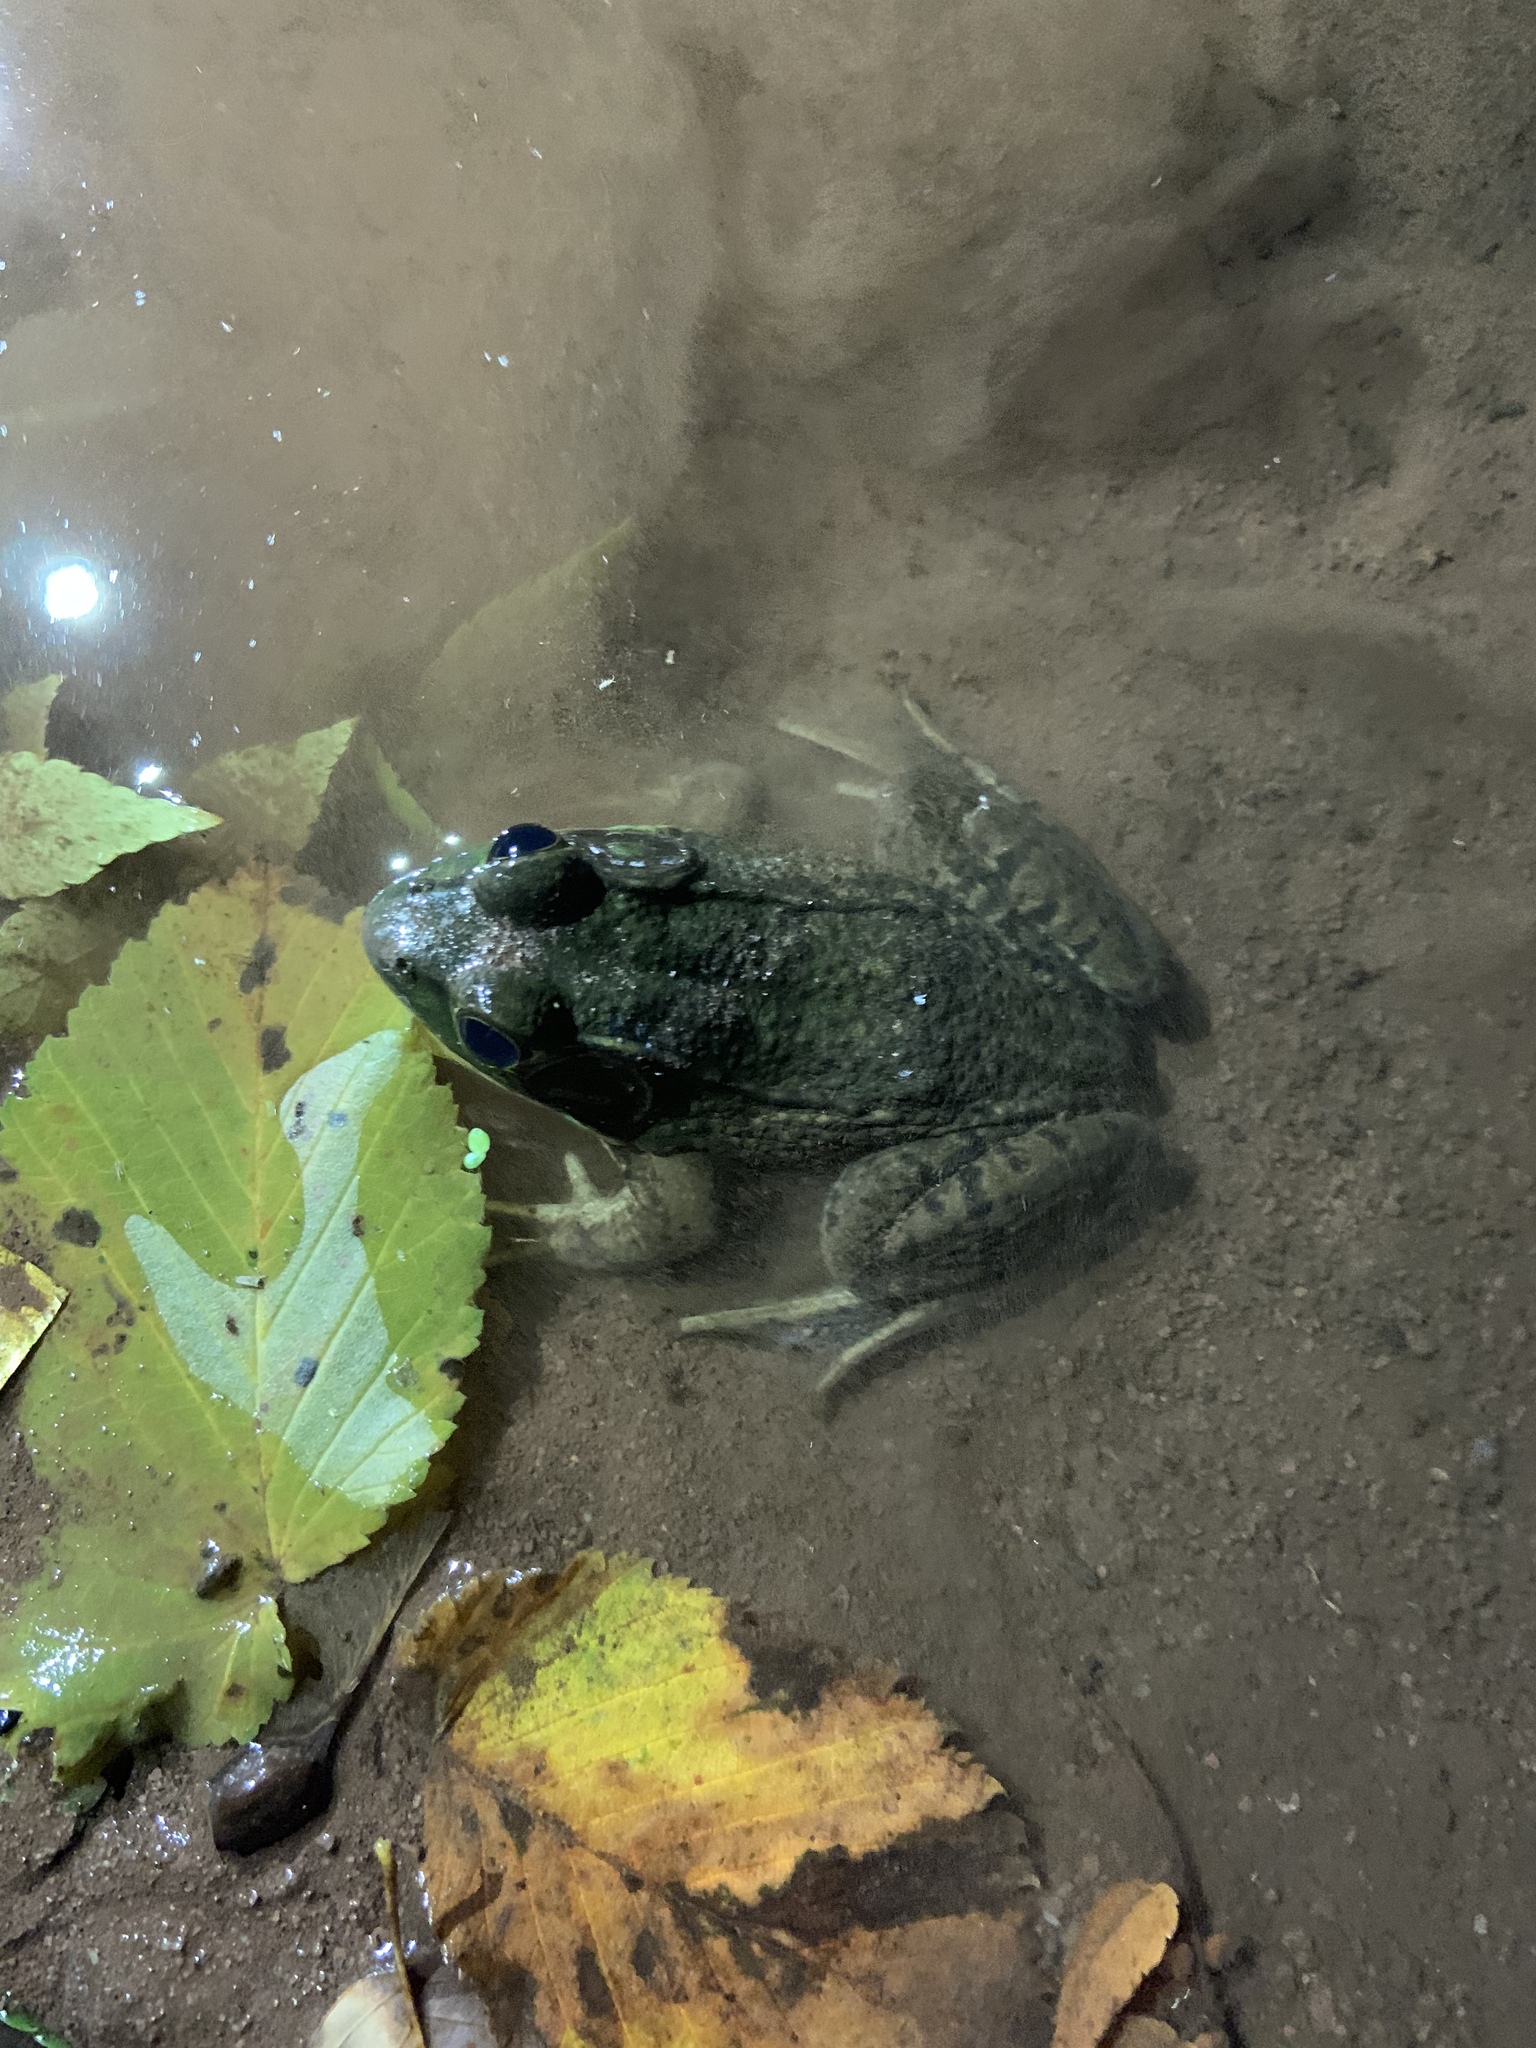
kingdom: Animalia
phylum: Chordata
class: Amphibia
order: Anura
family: Ranidae
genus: Lithobates
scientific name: Lithobates clamitans
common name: Green frog
